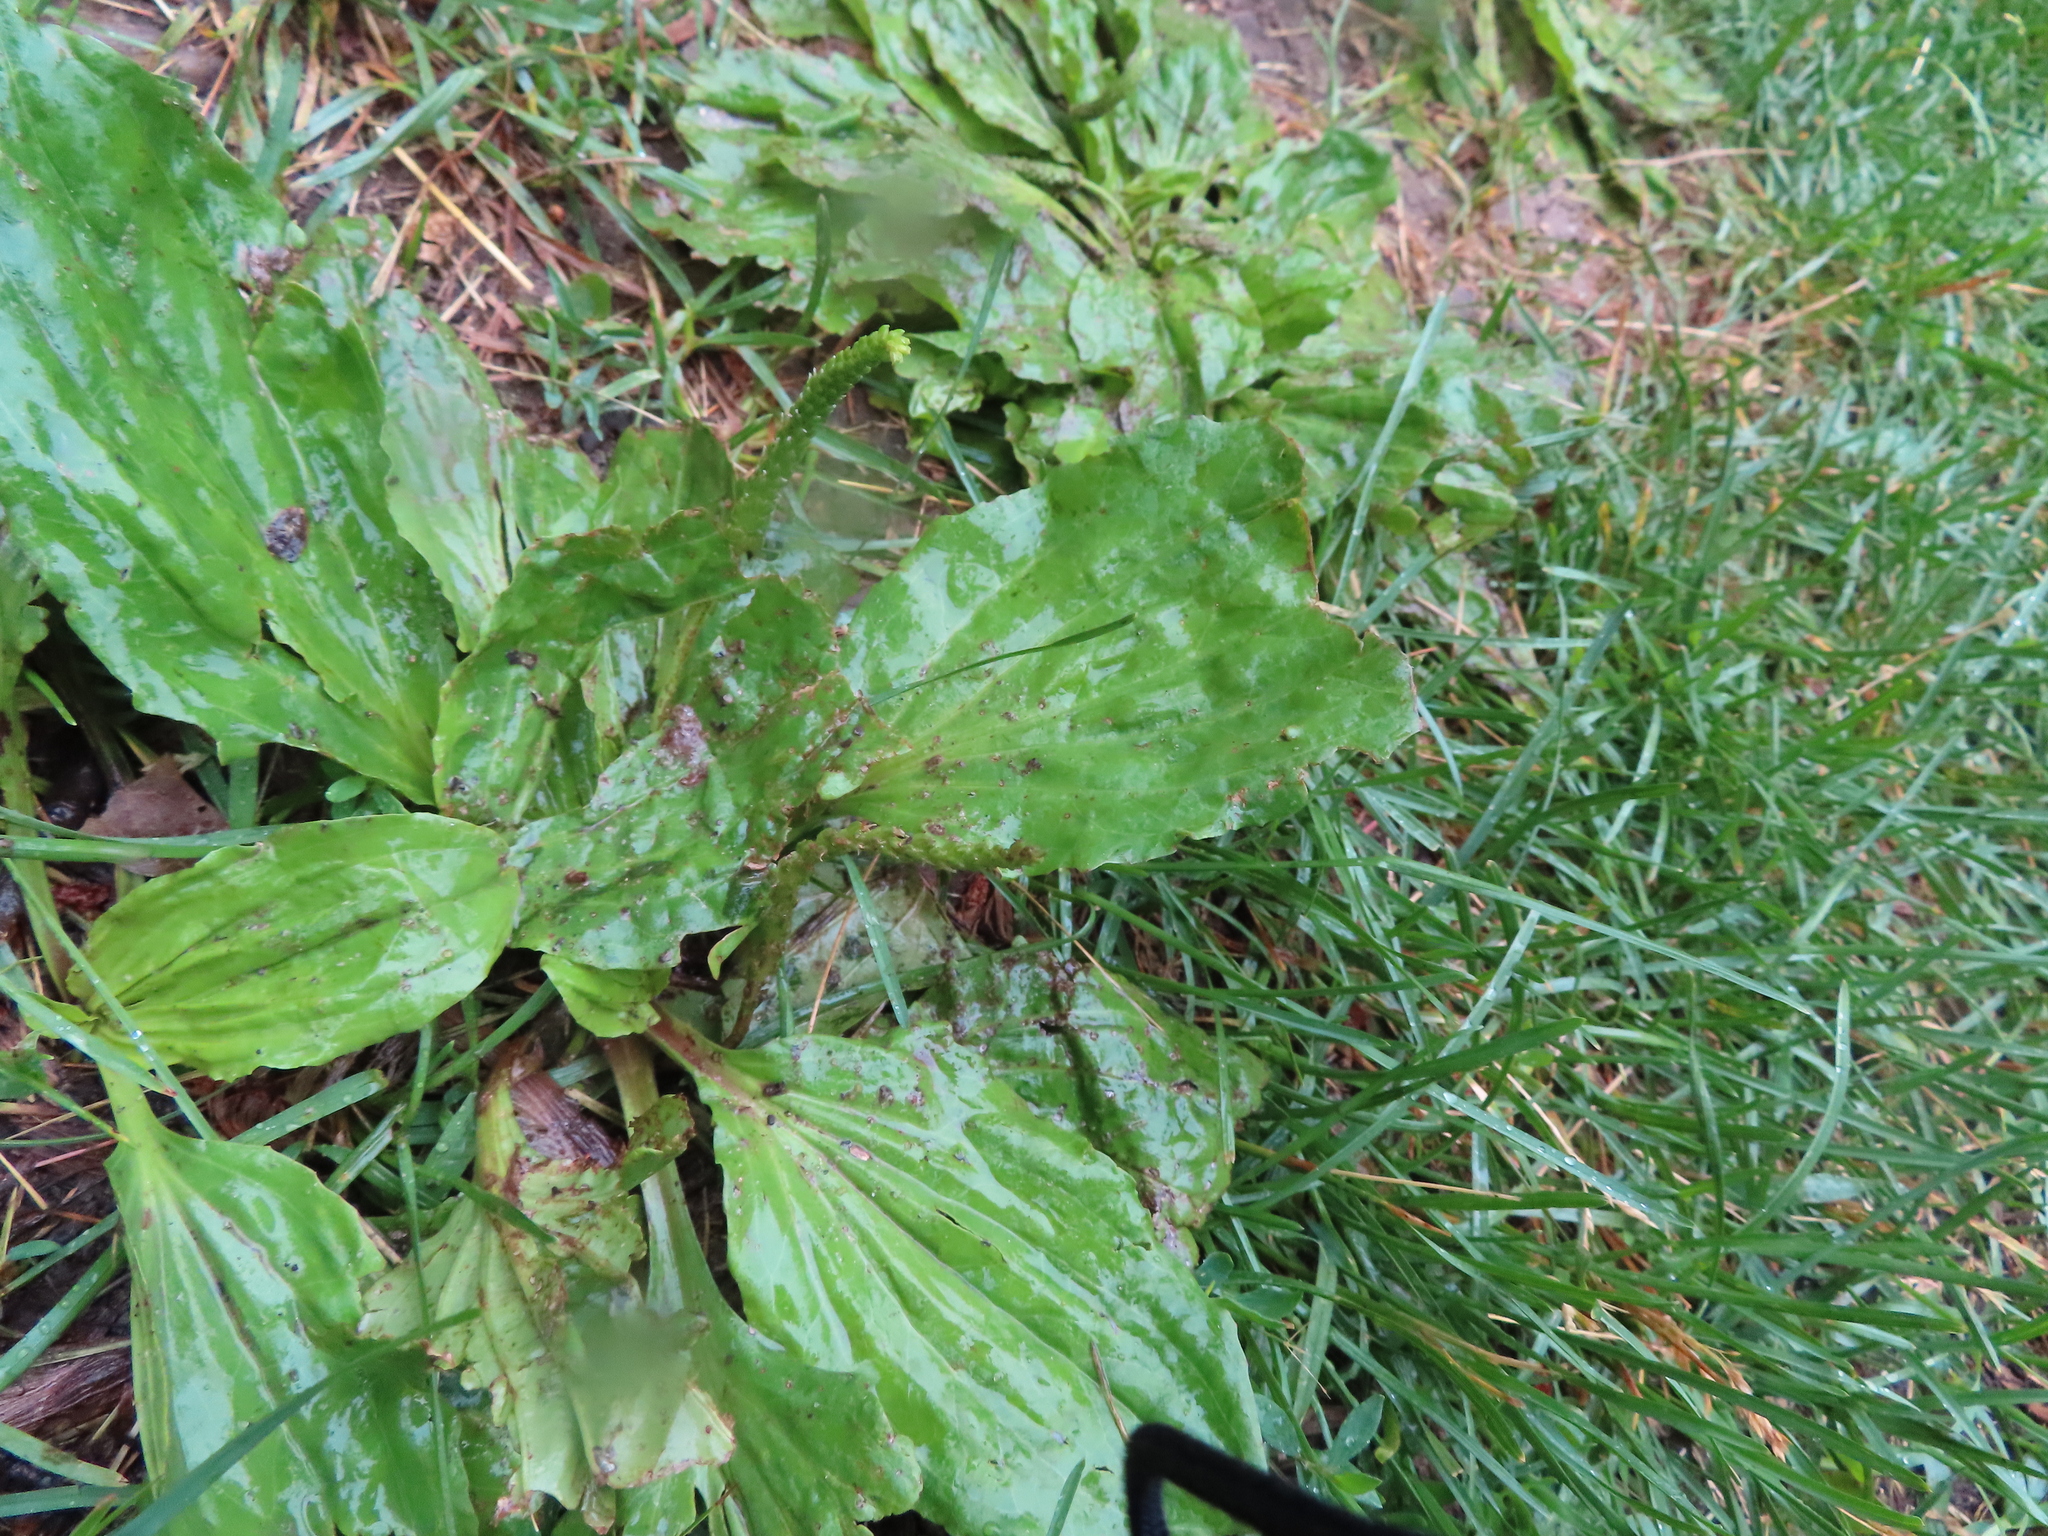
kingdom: Plantae
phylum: Tracheophyta
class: Magnoliopsida
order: Lamiales
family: Plantaginaceae
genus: Plantago
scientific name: Plantago rugelii
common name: American plantain
